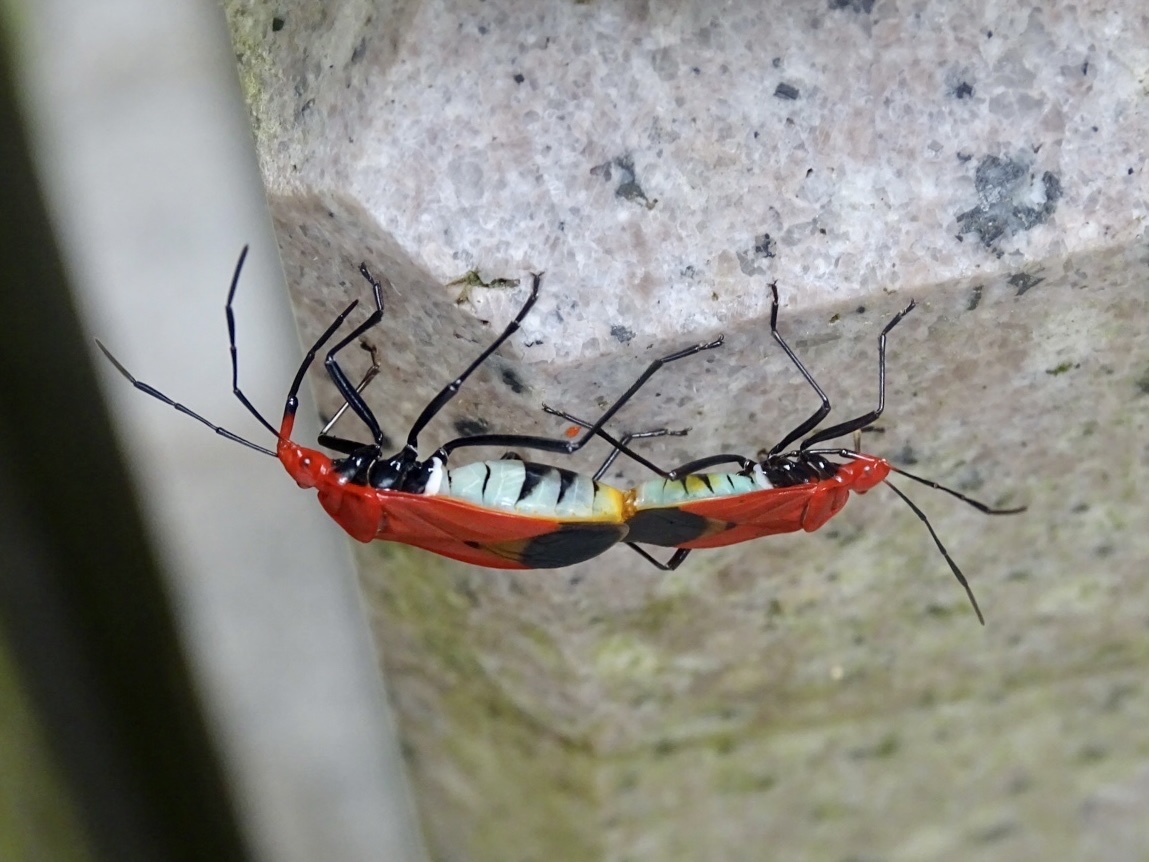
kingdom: Animalia
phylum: Arthropoda
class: Insecta
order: Hemiptera
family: Pyrrhocoridae
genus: Dindymus
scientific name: Dindymus
